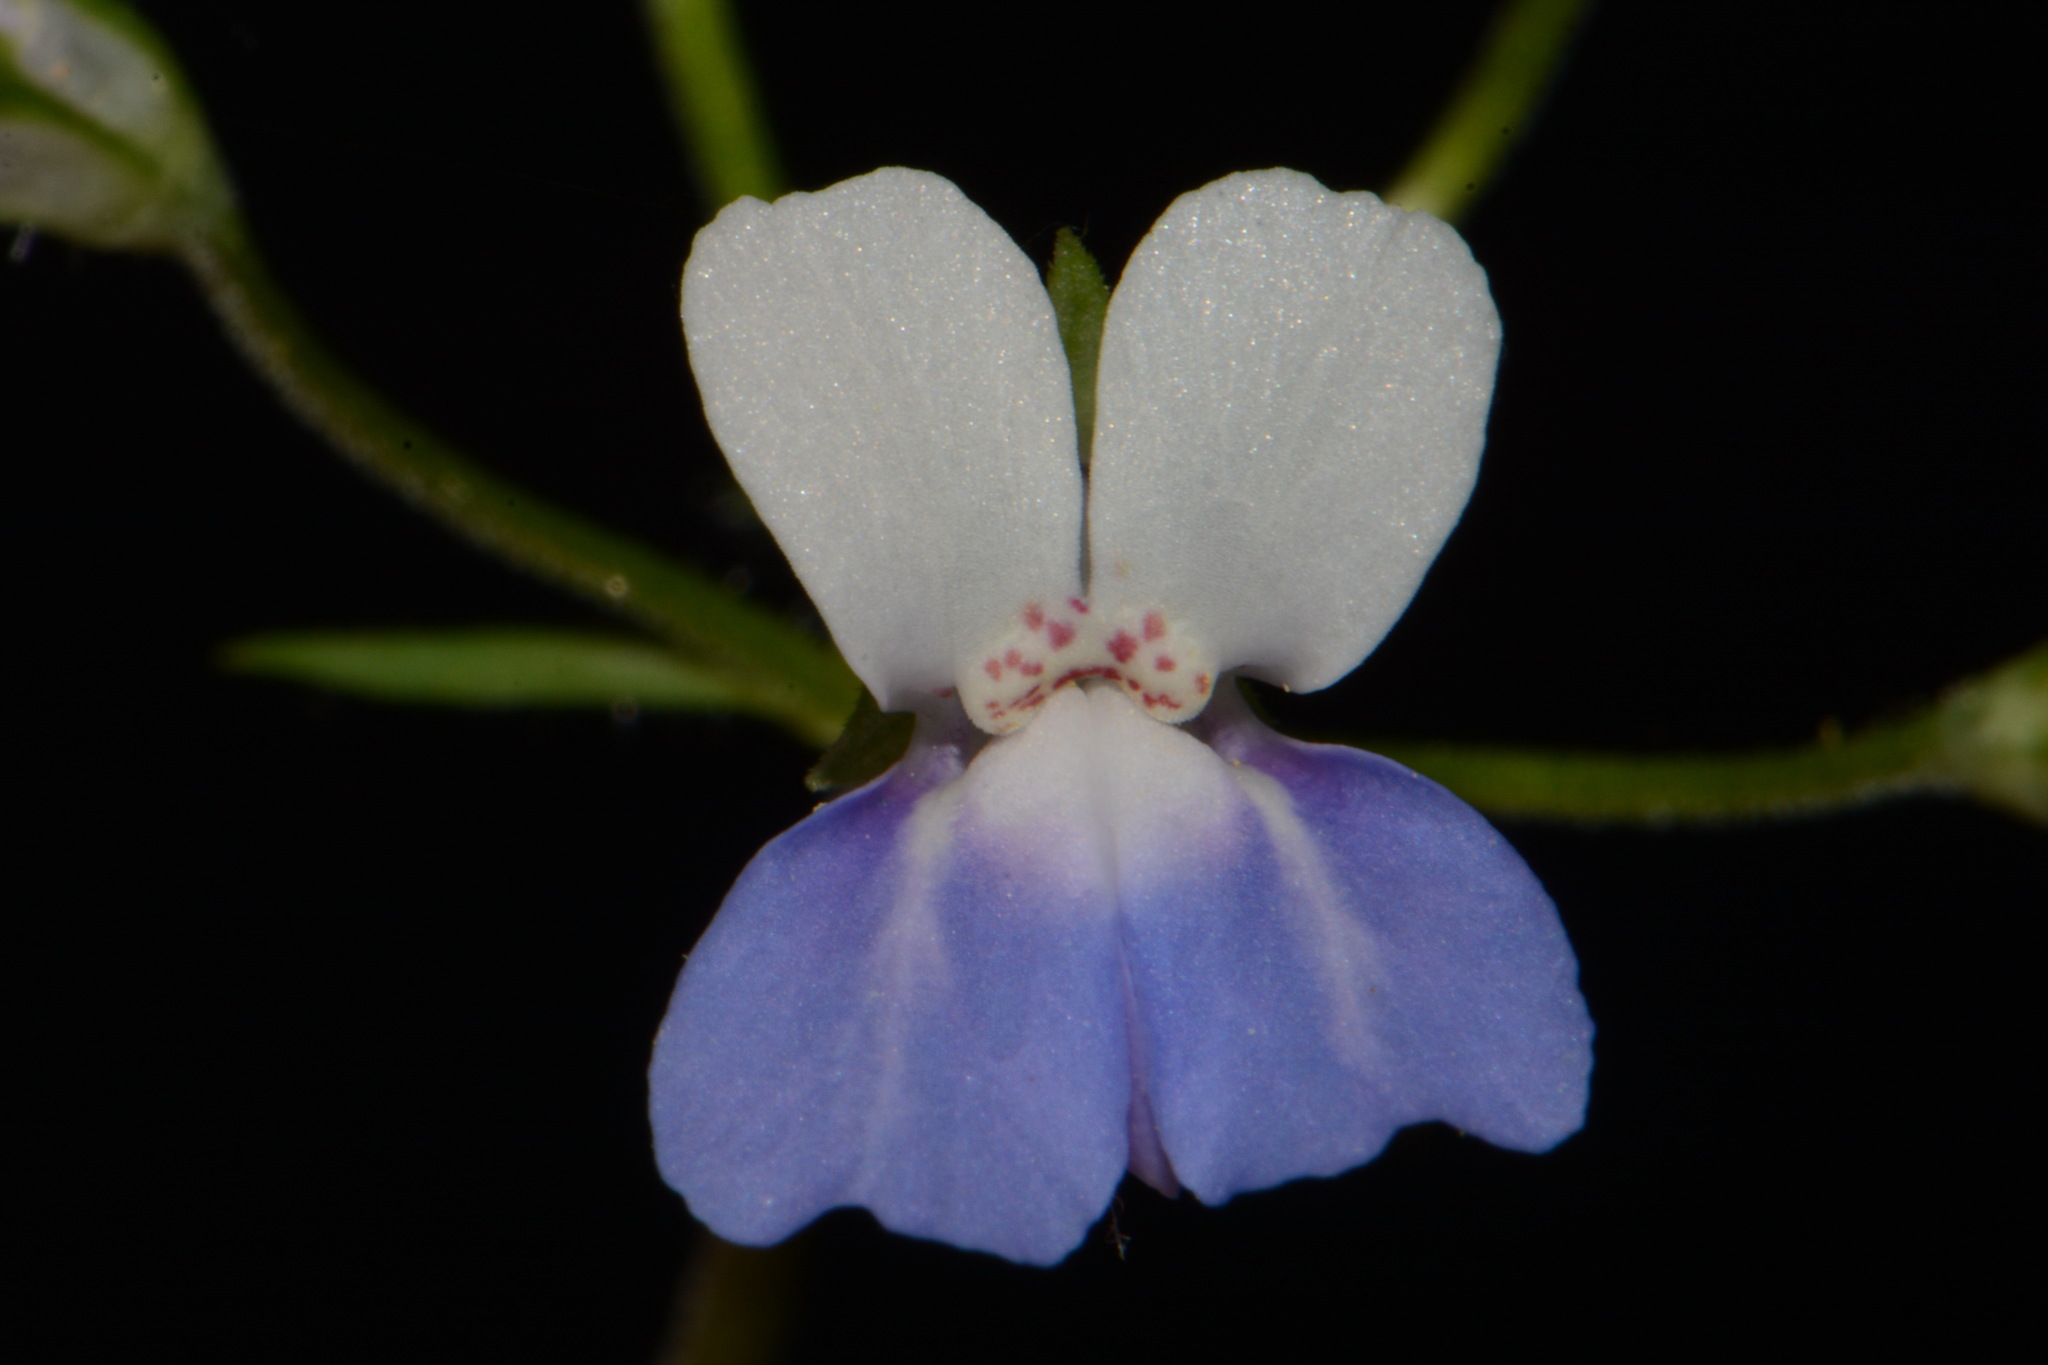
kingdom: Plantae
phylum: Tracheophyta
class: Magnoliopsida
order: Lamiales
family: Plantaginaceae
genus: Collinsia
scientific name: Collinsia verna
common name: Broad-leaved collinsia
